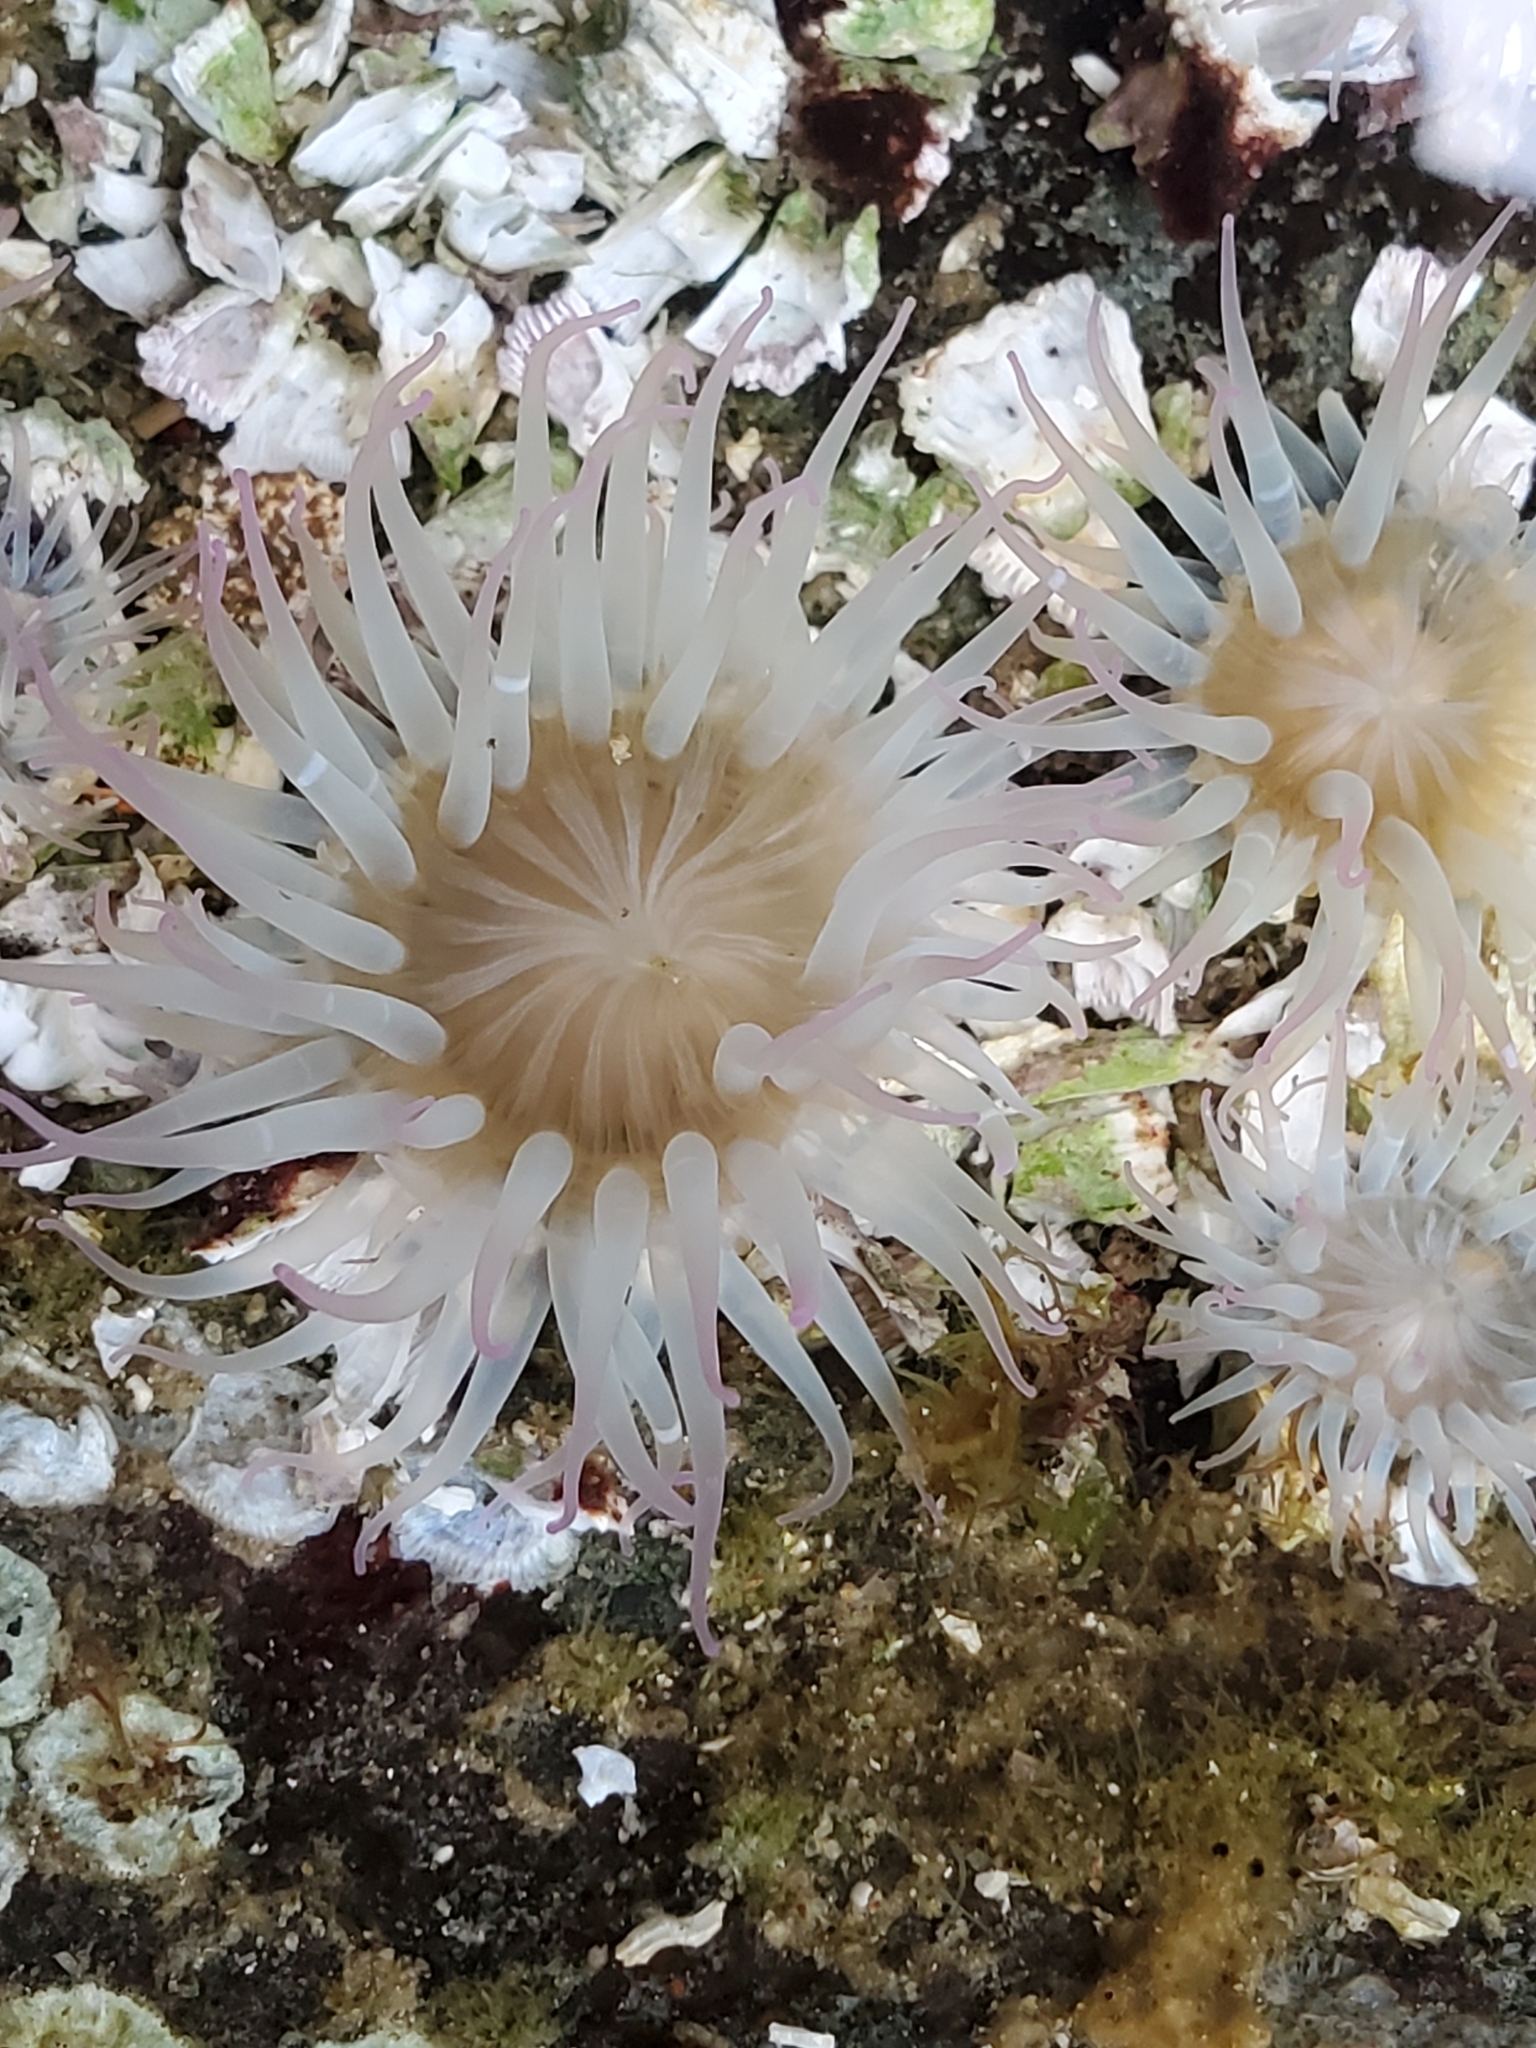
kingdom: Animalia
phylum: Cnidaria
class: Anthozoa
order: Actiniaria
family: Actiniidae
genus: Anthopleura
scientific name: Anthopleura elegantissima
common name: Clonal anemone
